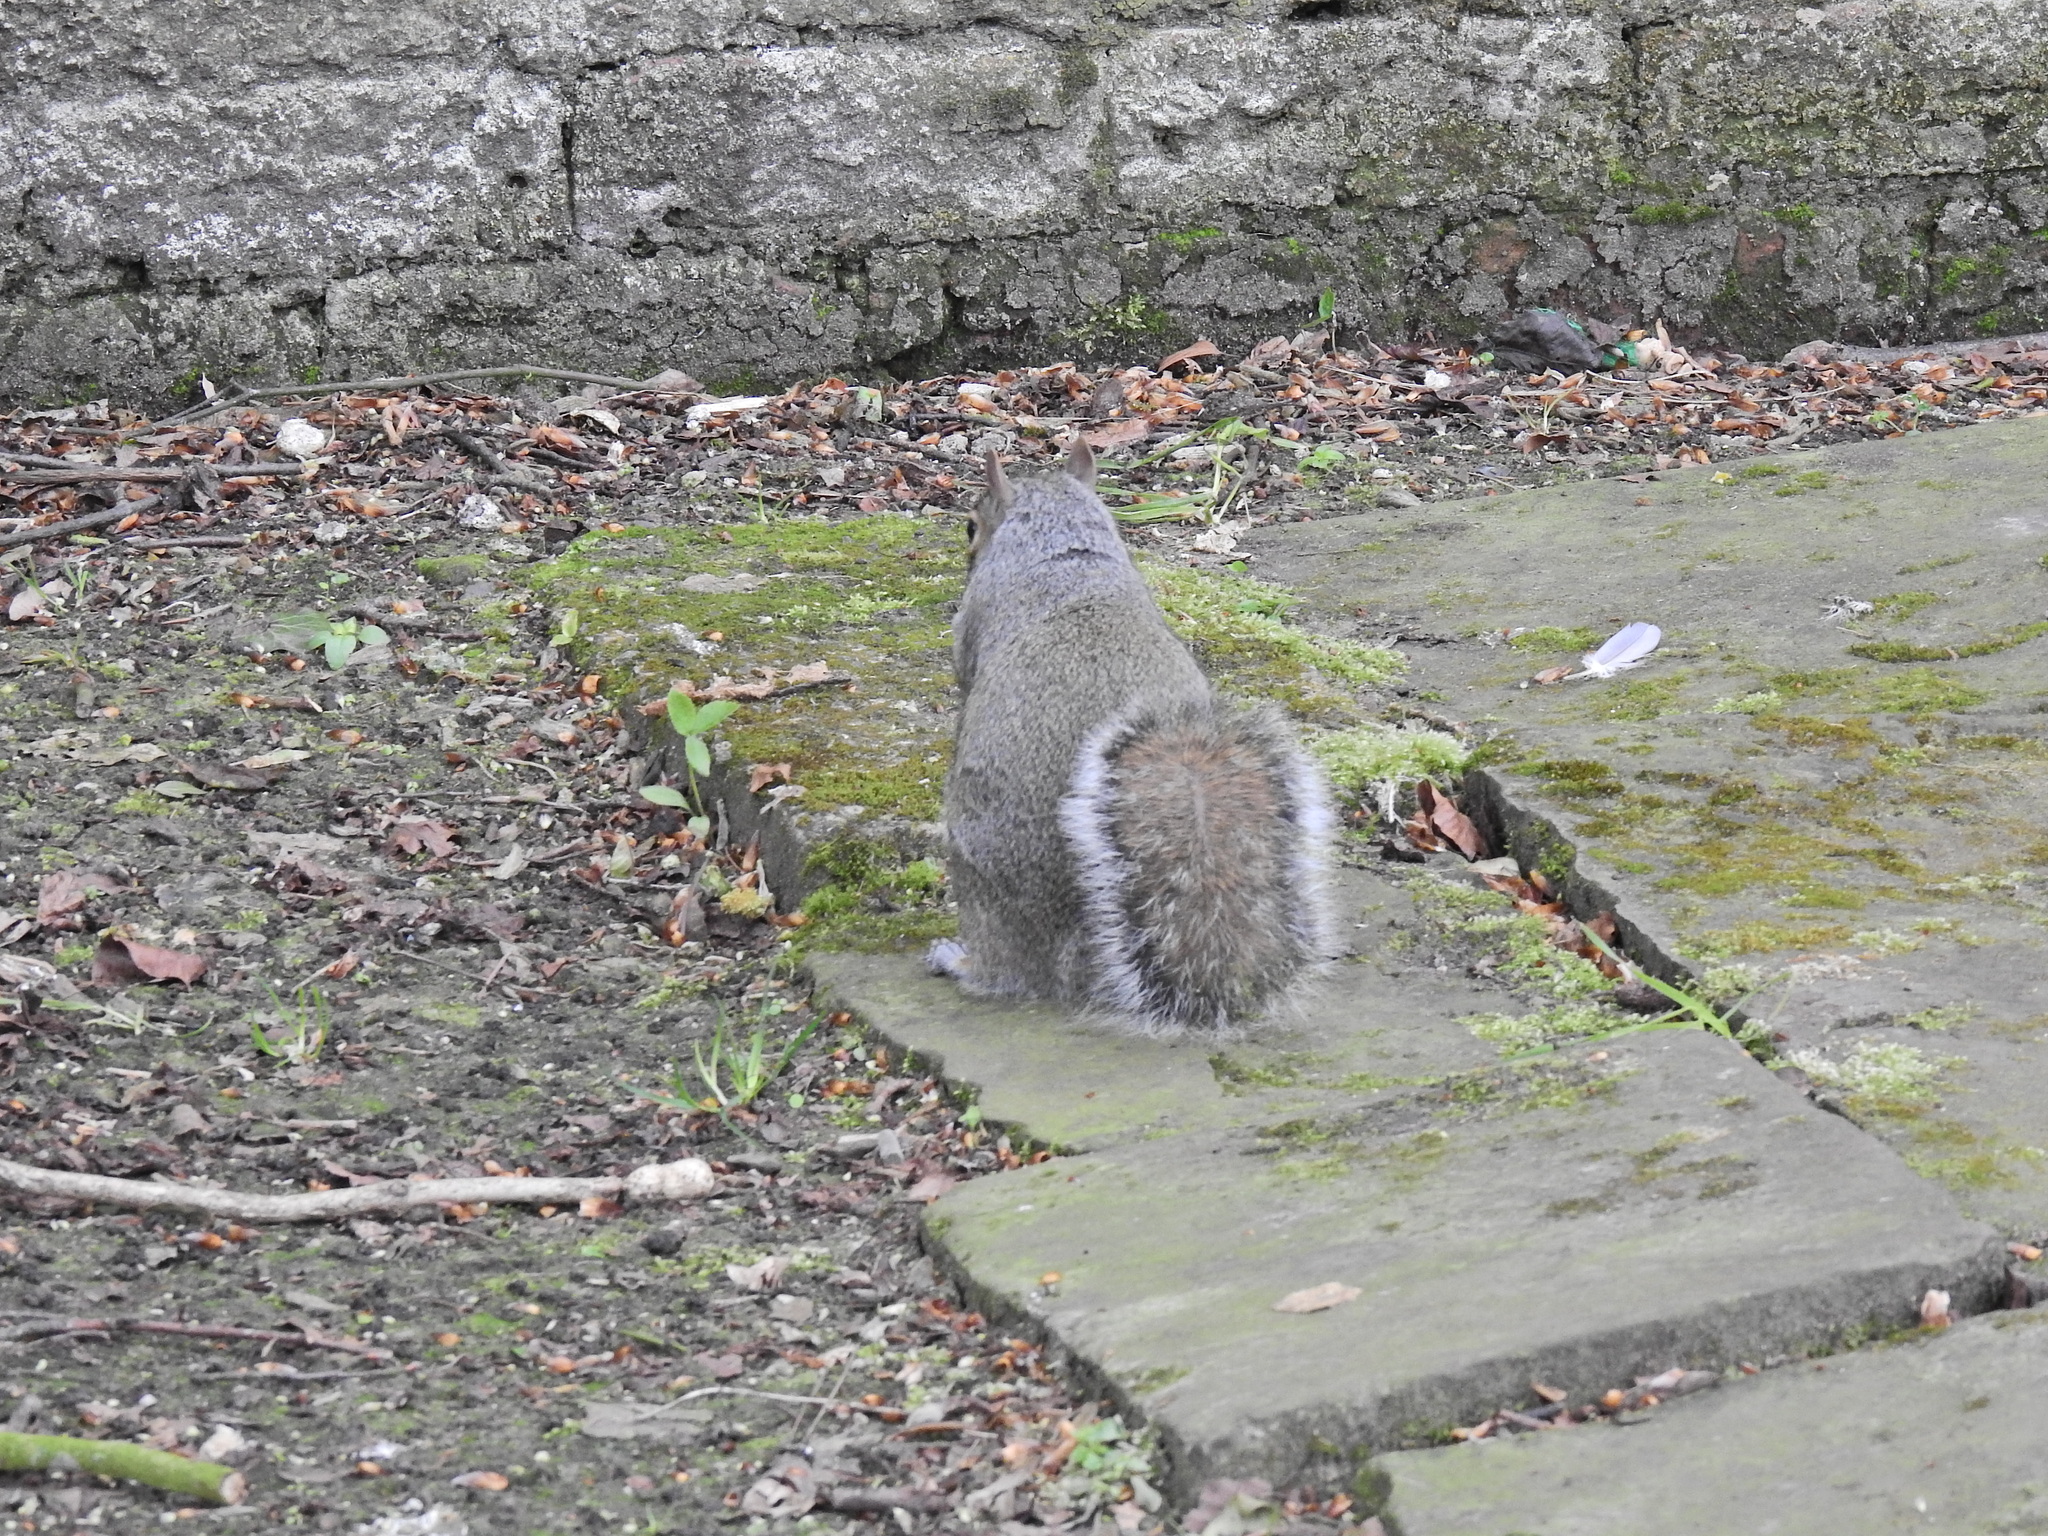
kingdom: Animalia
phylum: Chordata
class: Mammalia
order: Rodentia
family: Sciuridae
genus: Sciurus
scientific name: Sciurus carolinensis
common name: Eastern gray squirrel
